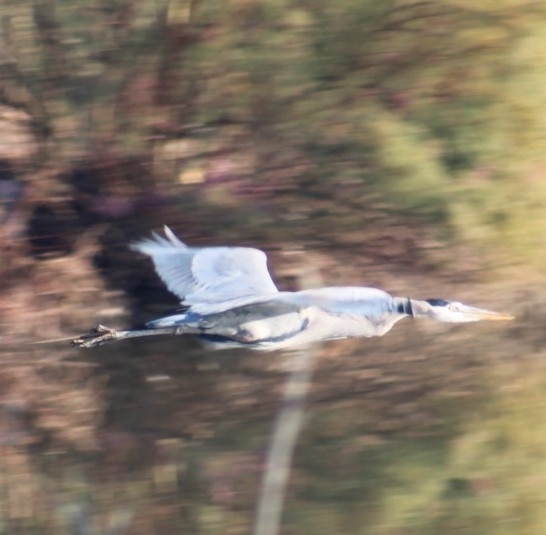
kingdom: Animalia
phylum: Chordata
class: Aves
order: Pelecaniformes
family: Ardeidae
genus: Ardea
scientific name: Ardea herodias
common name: Great blue heron
